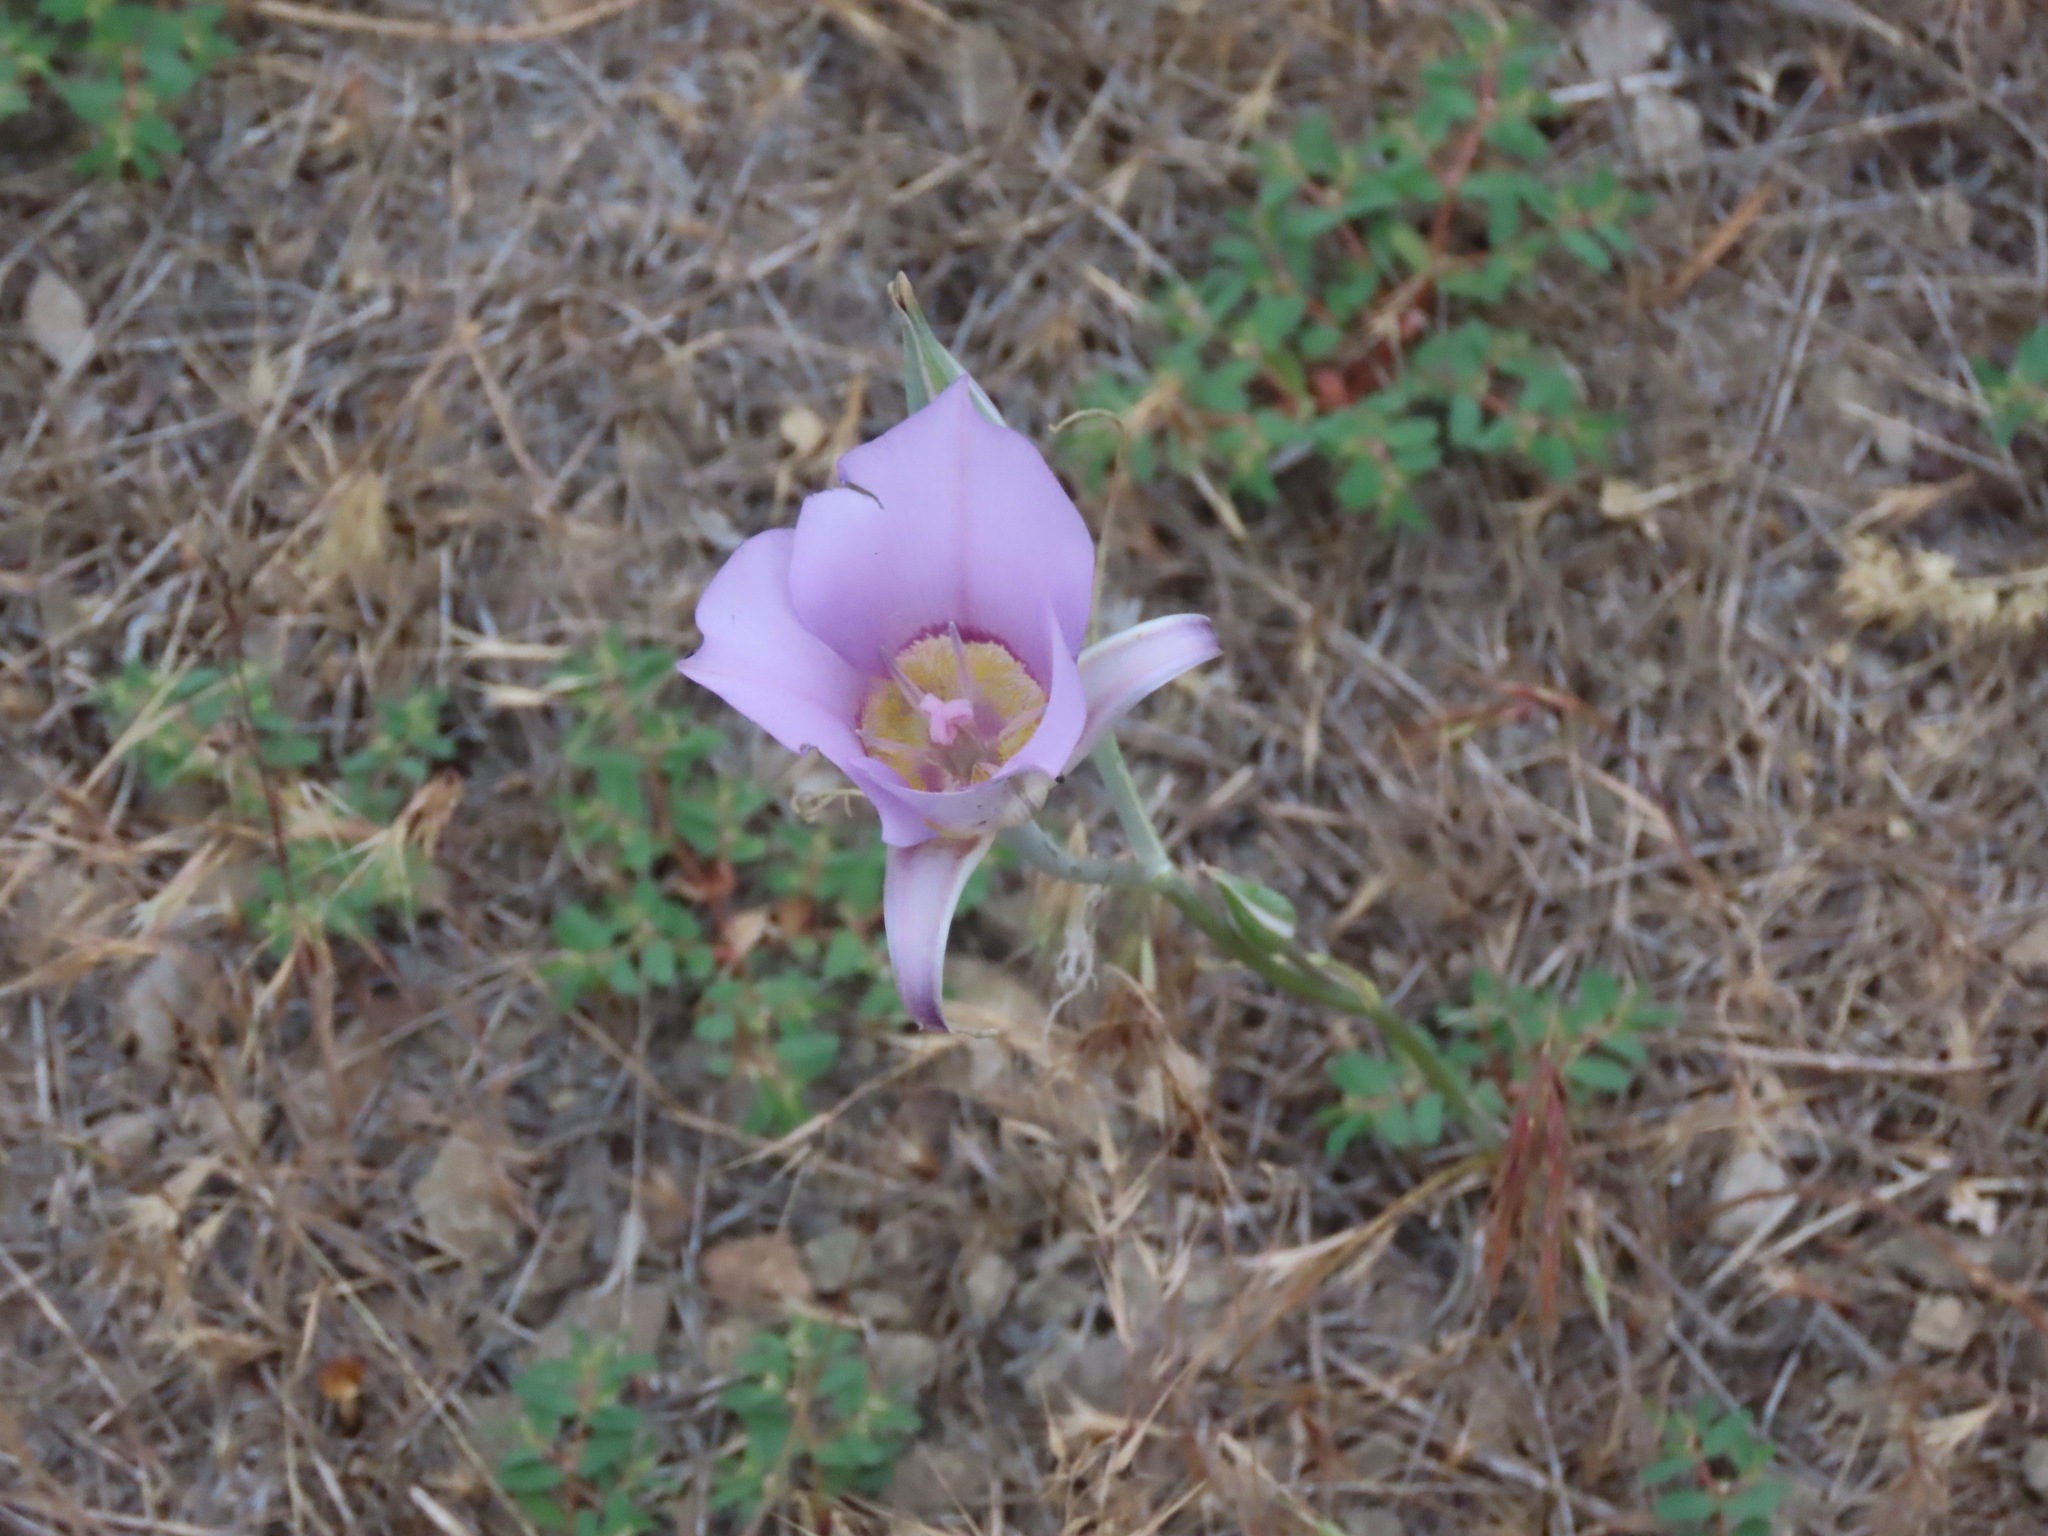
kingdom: Plantae
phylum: Tracheophyta
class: Liliopsida
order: Liliales
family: Liliaceae
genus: Calochortus
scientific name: Calochortus macrocarpus
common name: Green-band mariposa lily
